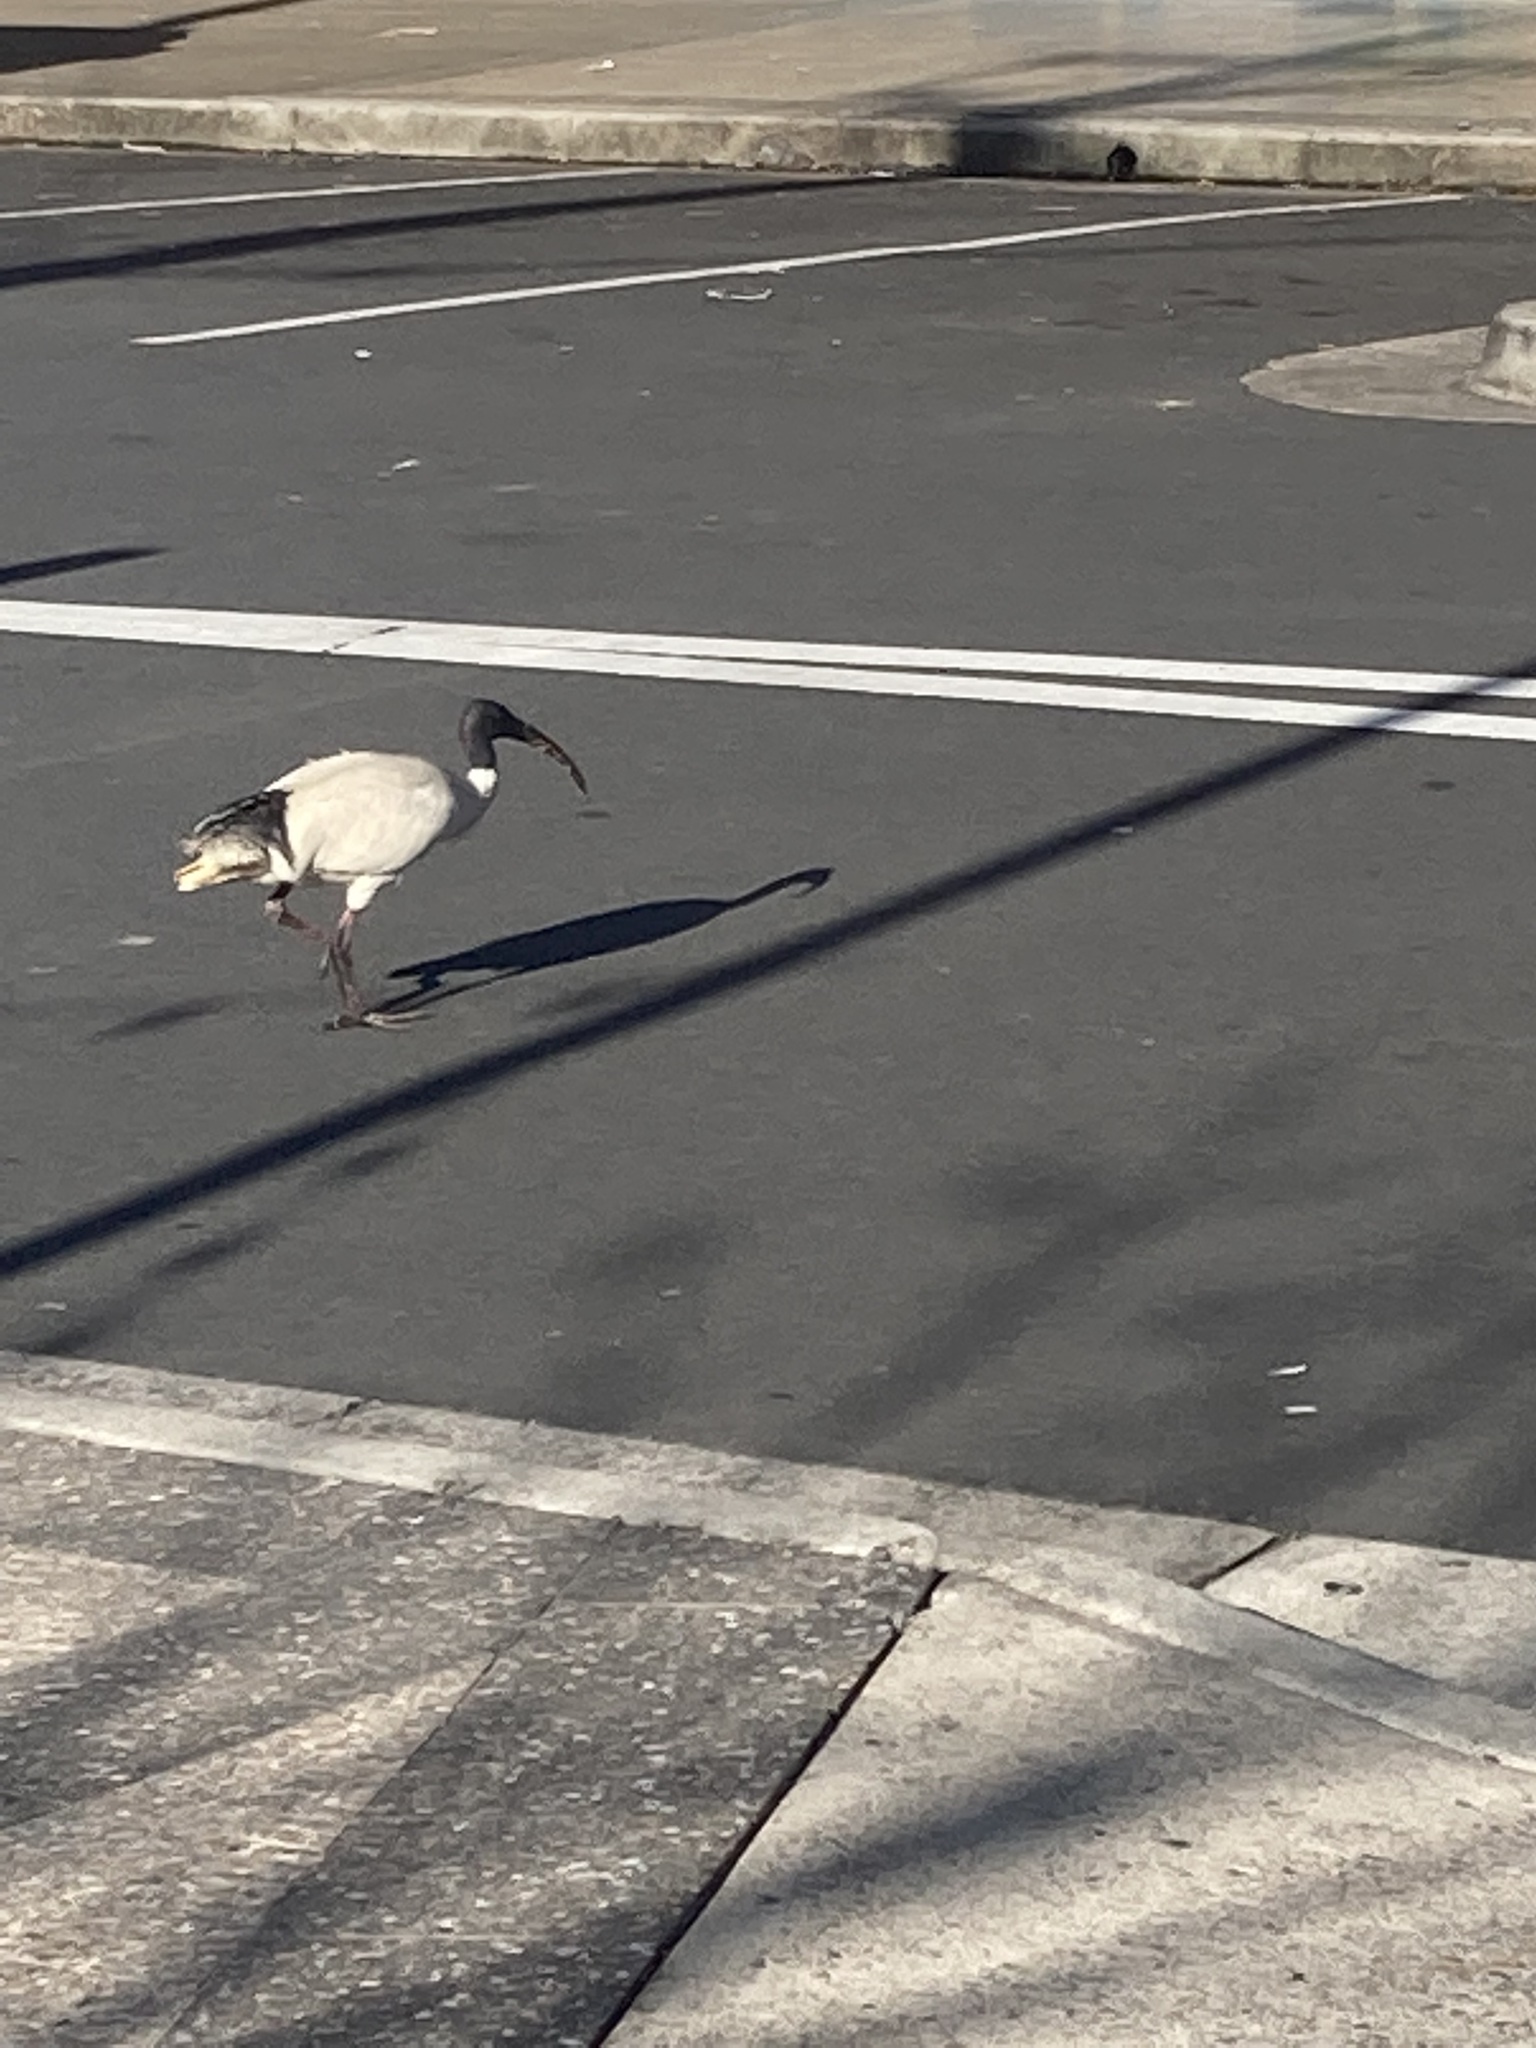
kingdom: Animalia
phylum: Chordata
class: Aves
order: Pelecaniformes
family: Threskiornithidae
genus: Threskiornis
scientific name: Threskiornis molucca
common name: Australian white ibis
